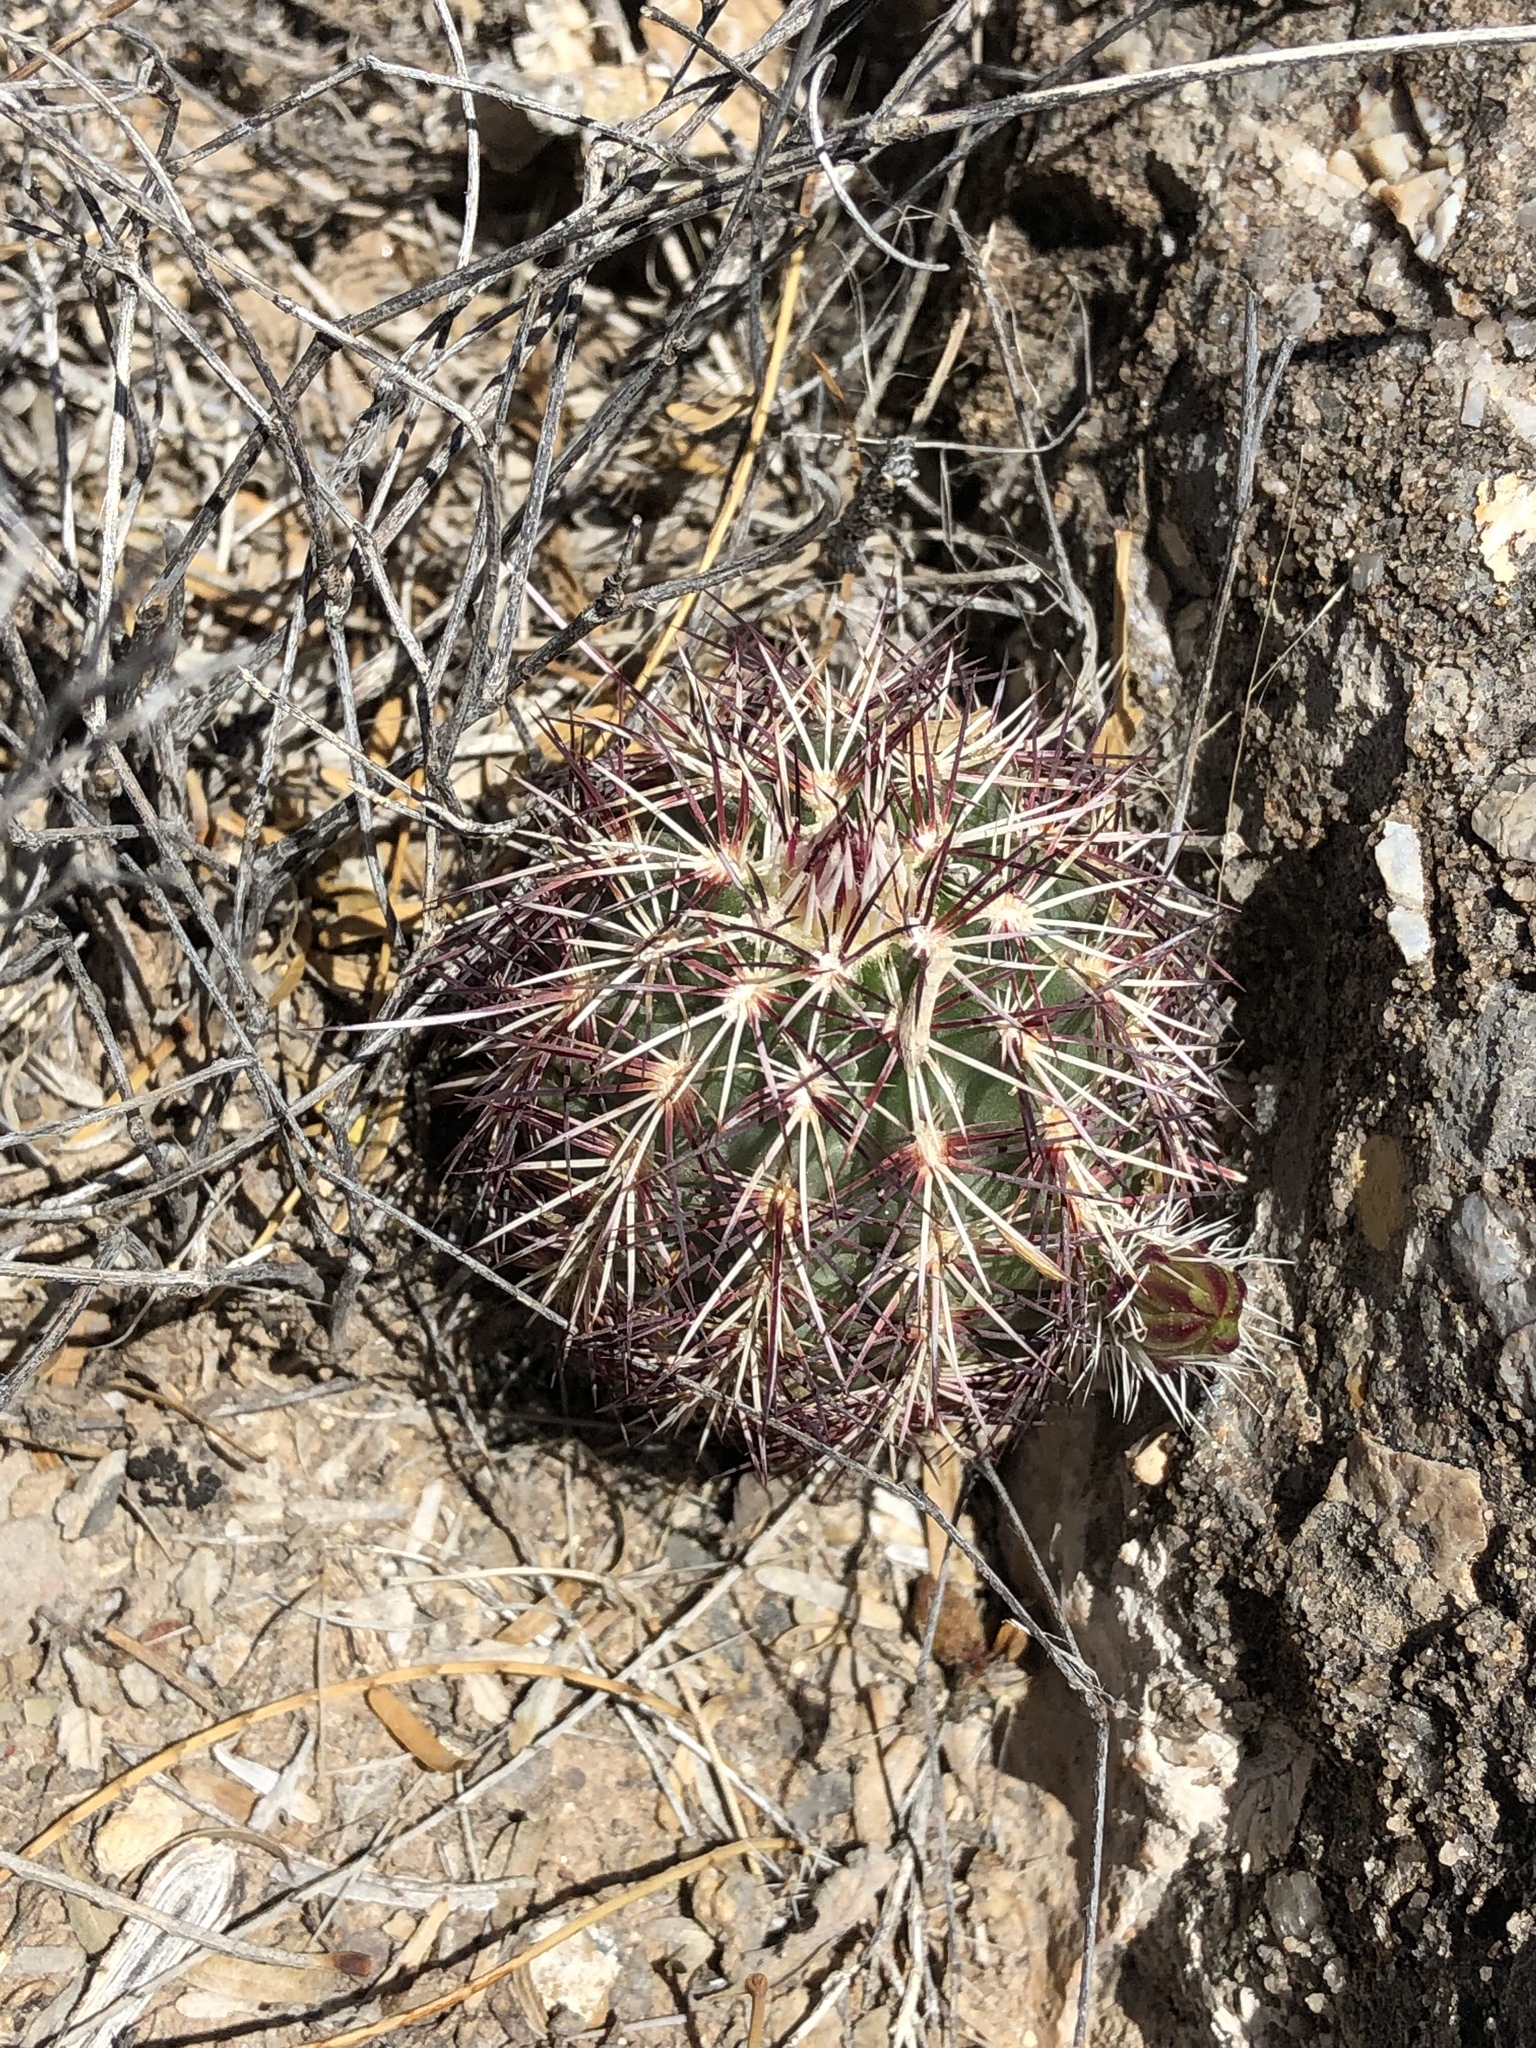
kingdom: Plantae
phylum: Tracheophyta
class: Magnoliopsida
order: Caryophyllales
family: Cactaceae
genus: Echinocereus
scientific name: Echinocereus viridiflorus
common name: Nylon hedgehog cactus
